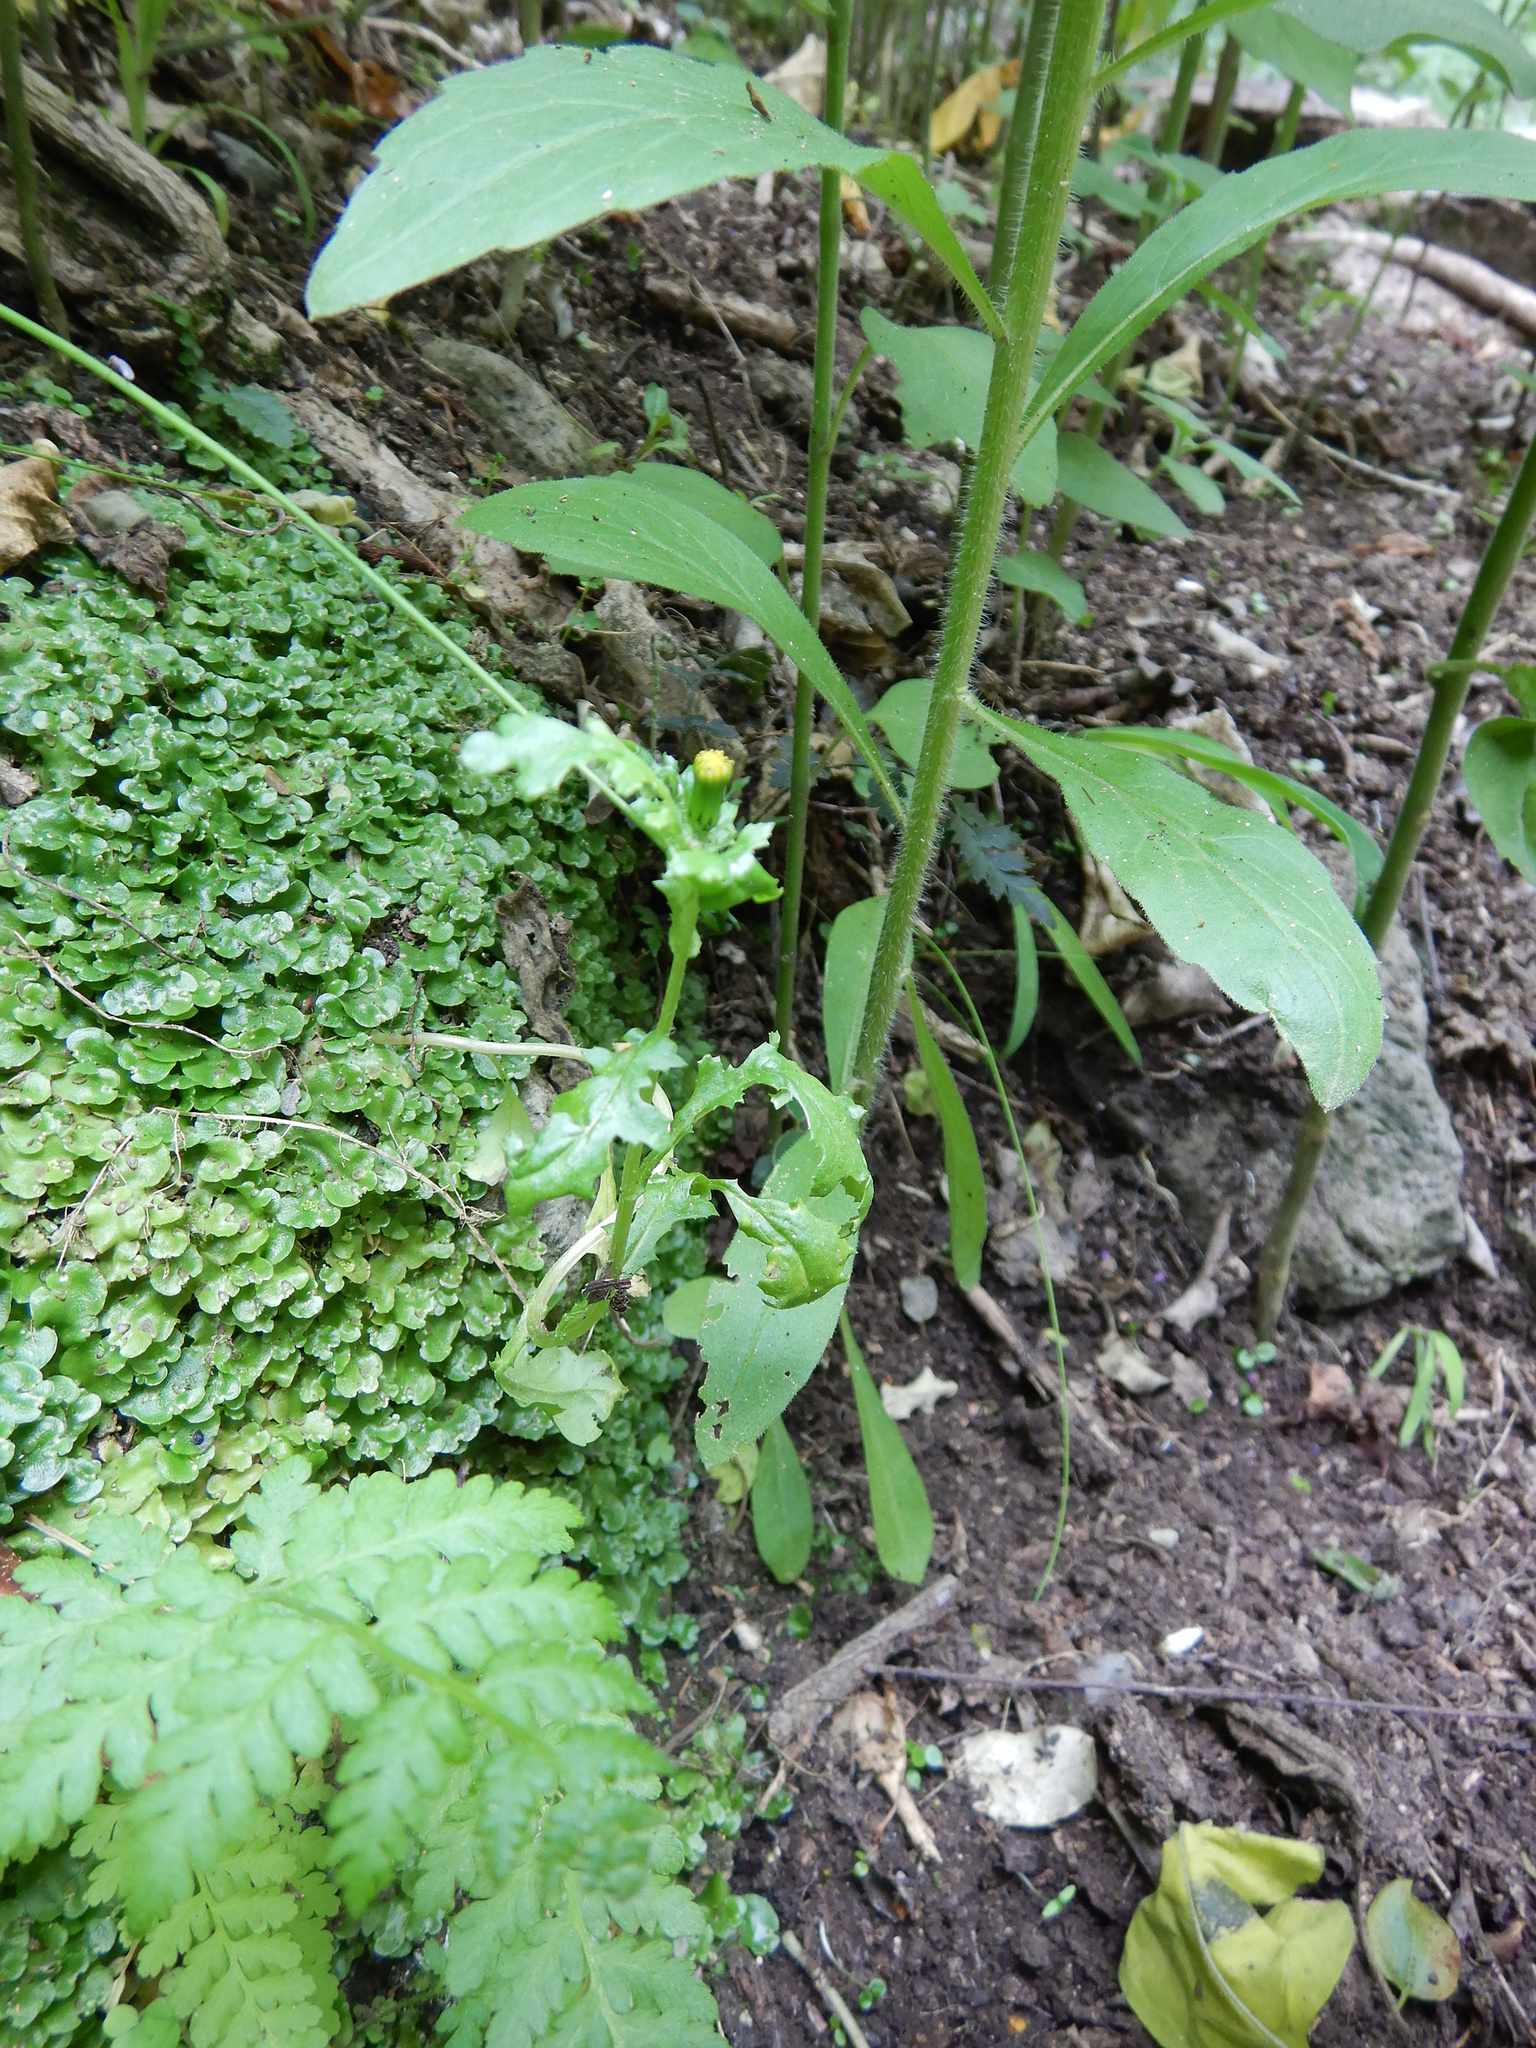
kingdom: Plantae
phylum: Tracheophyta
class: Magnoliopsida
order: Asterales
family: Asteraceae
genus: Senecio
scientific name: Senecio vulgaris
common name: Old-man-in-the-spring
